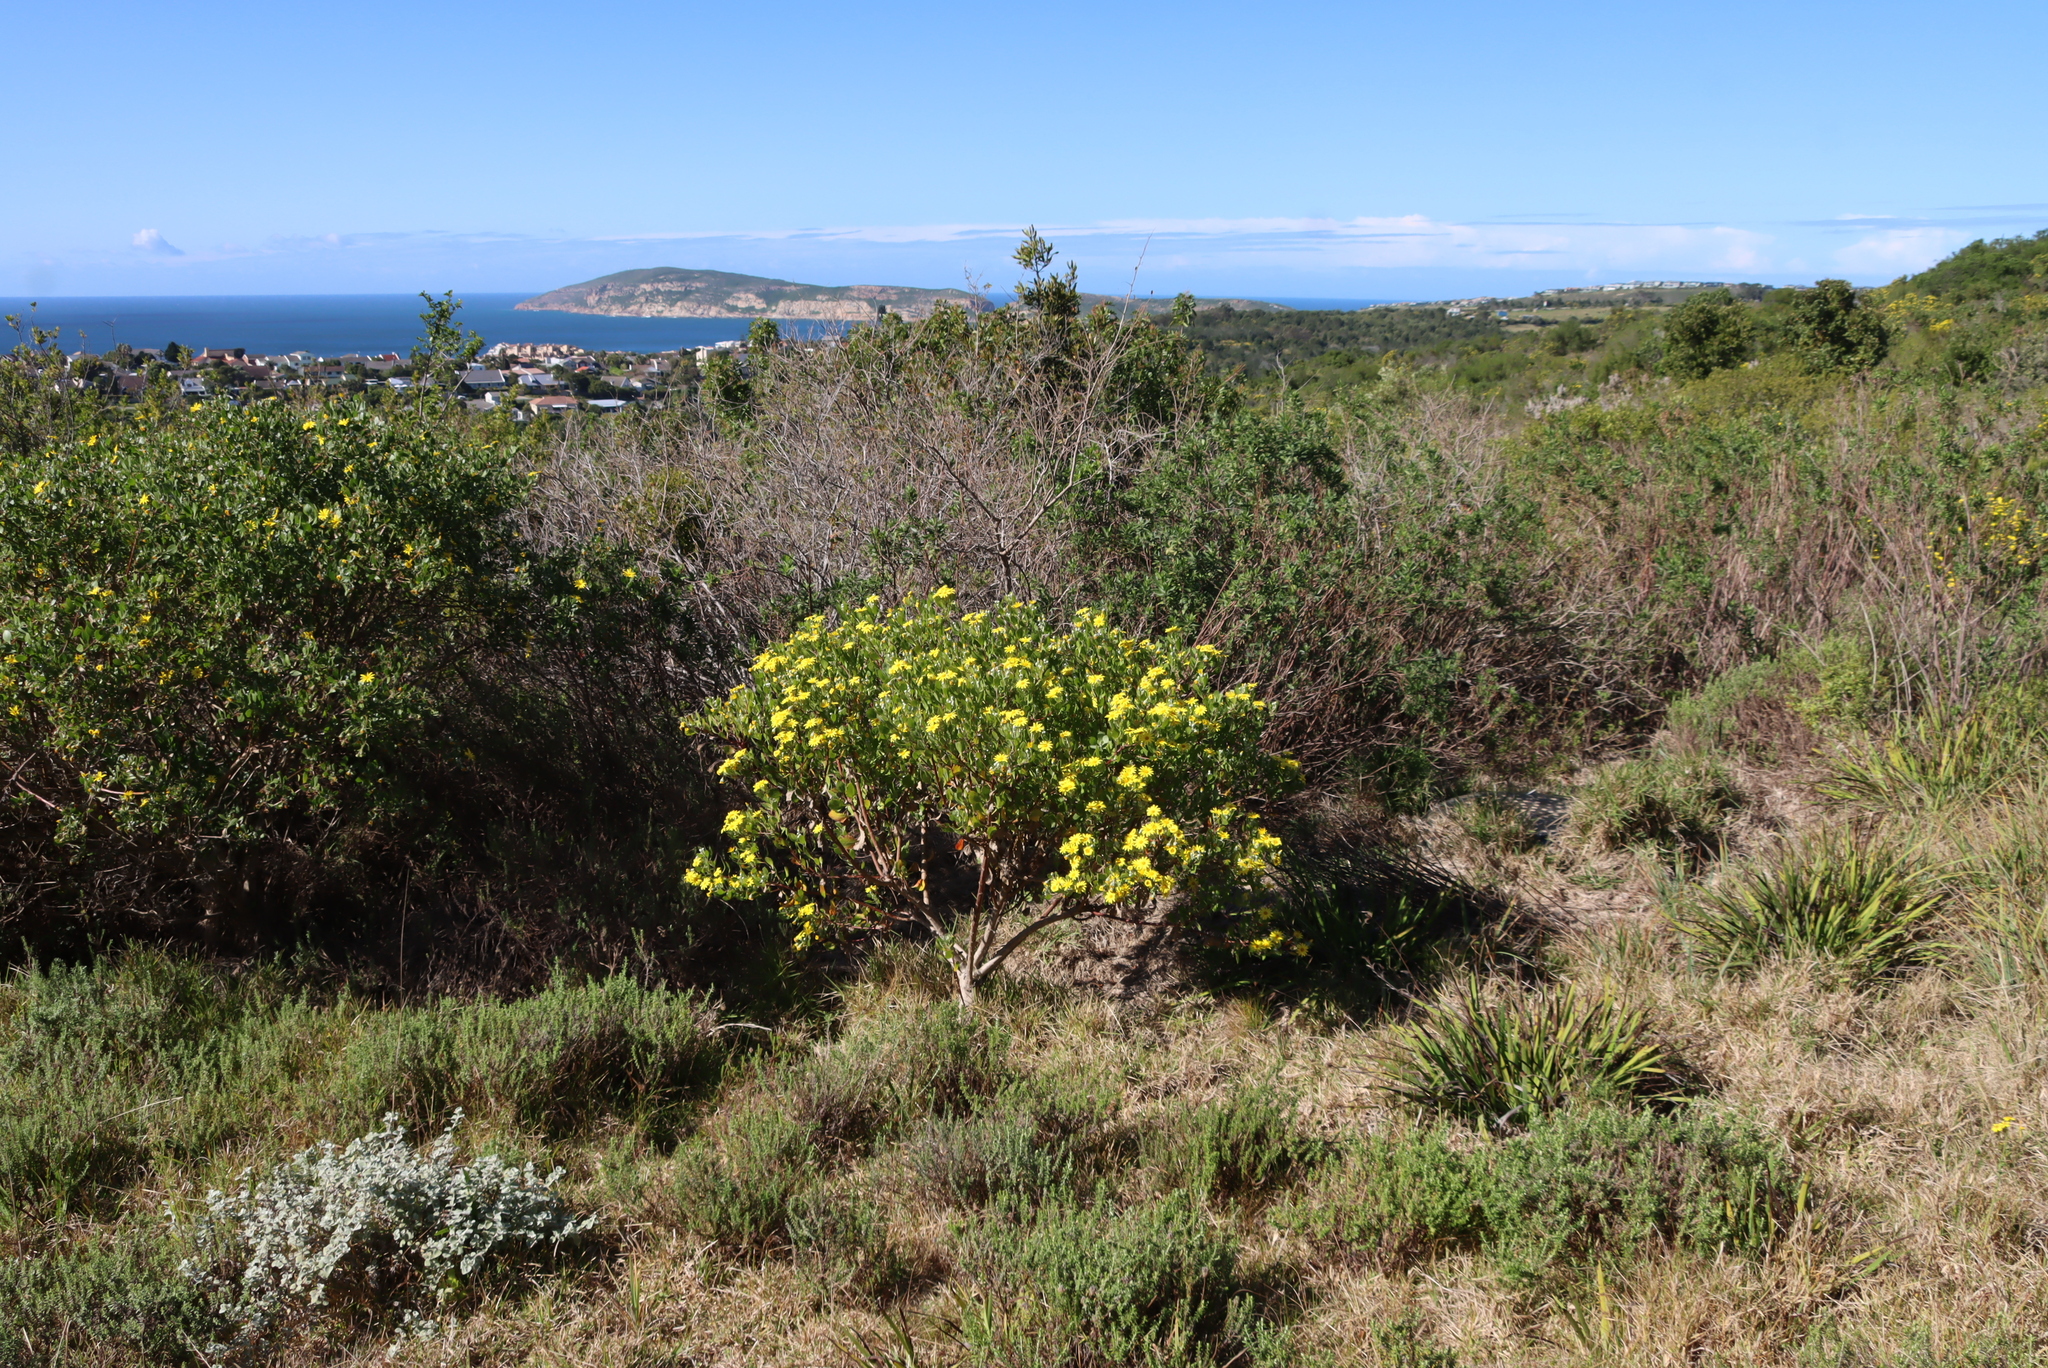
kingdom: Plantae
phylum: Tracheophyta
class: Magnoliopsida
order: Asterales
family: Asteraceae
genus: Osteospermum
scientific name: Osteospermum moniliferum
